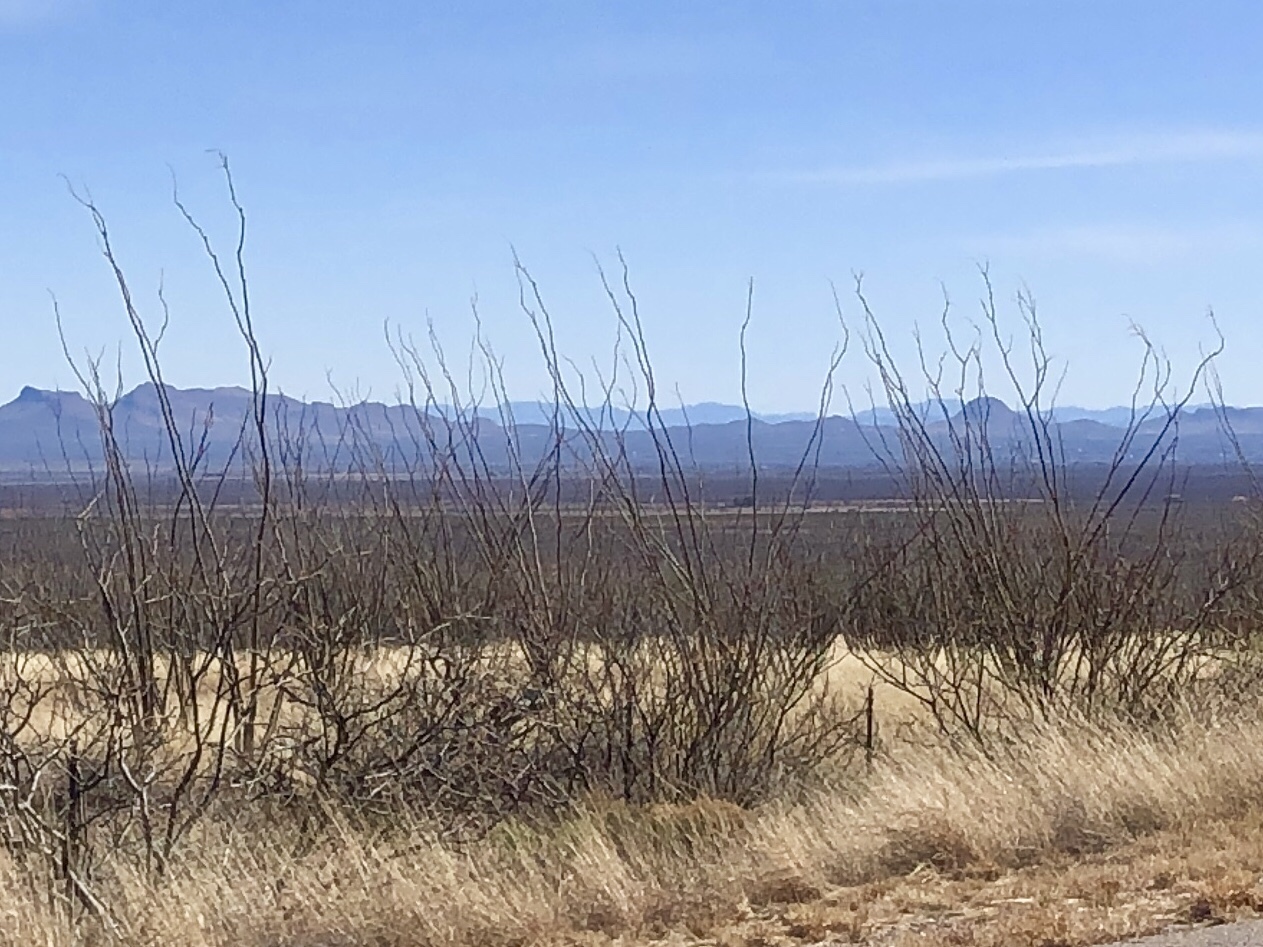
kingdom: Plantae
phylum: Tracheophyta
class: Magnoliopsida
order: Ericales
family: Fouquieriaceae
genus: Fouquieria
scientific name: Fouquieria splendens
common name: Vine-cactus
